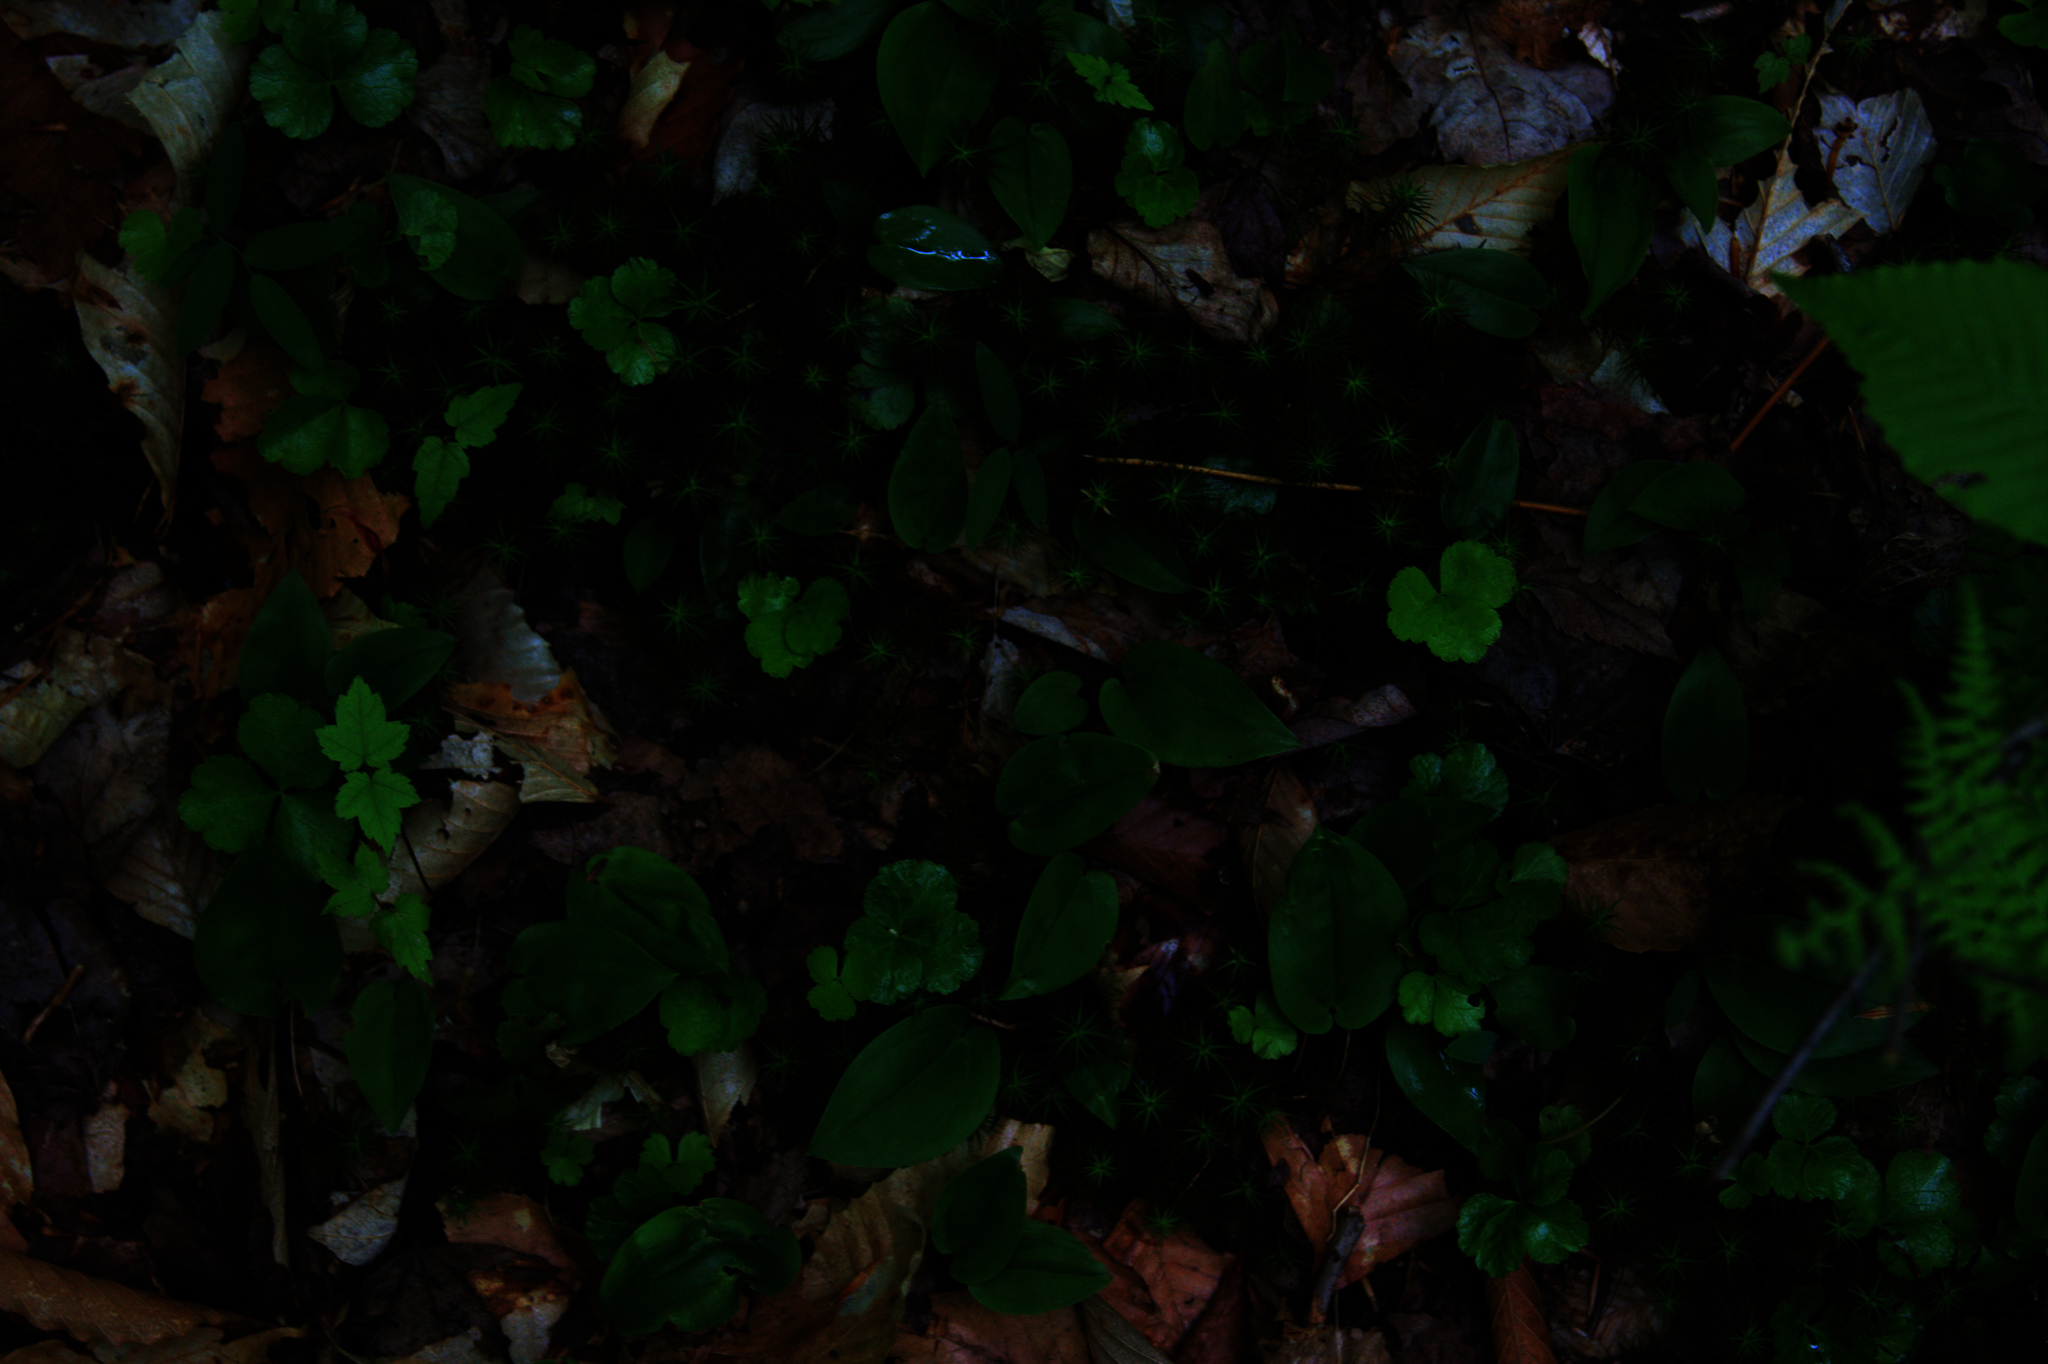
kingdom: Plantae
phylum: Tracheophyta
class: Liliopsida
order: Asparagales
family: Asparagaceae
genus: Maianthemum
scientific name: Maianthemum canadense
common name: False lily-of-the-valley
